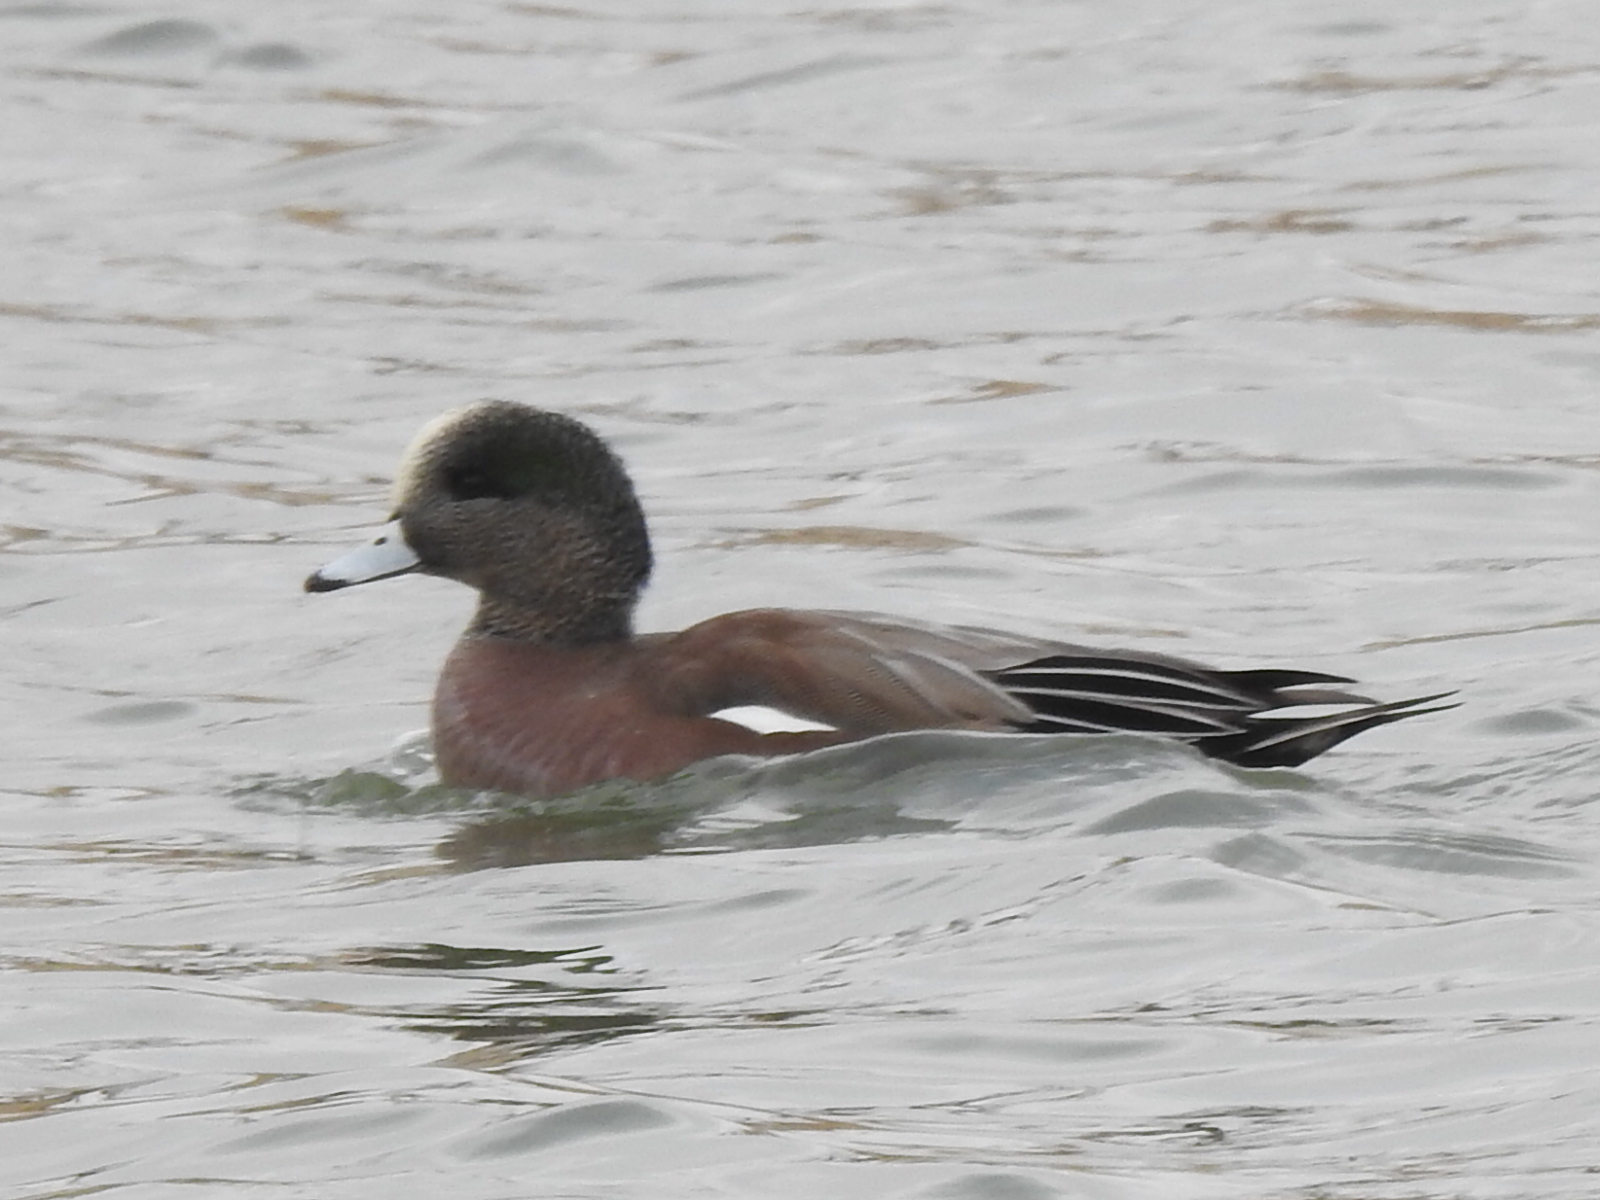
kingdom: Animalia
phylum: Chordata
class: Aves
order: Anseriformes
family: Anatidae
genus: Mareca
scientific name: Mareca americana
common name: American wigeon
